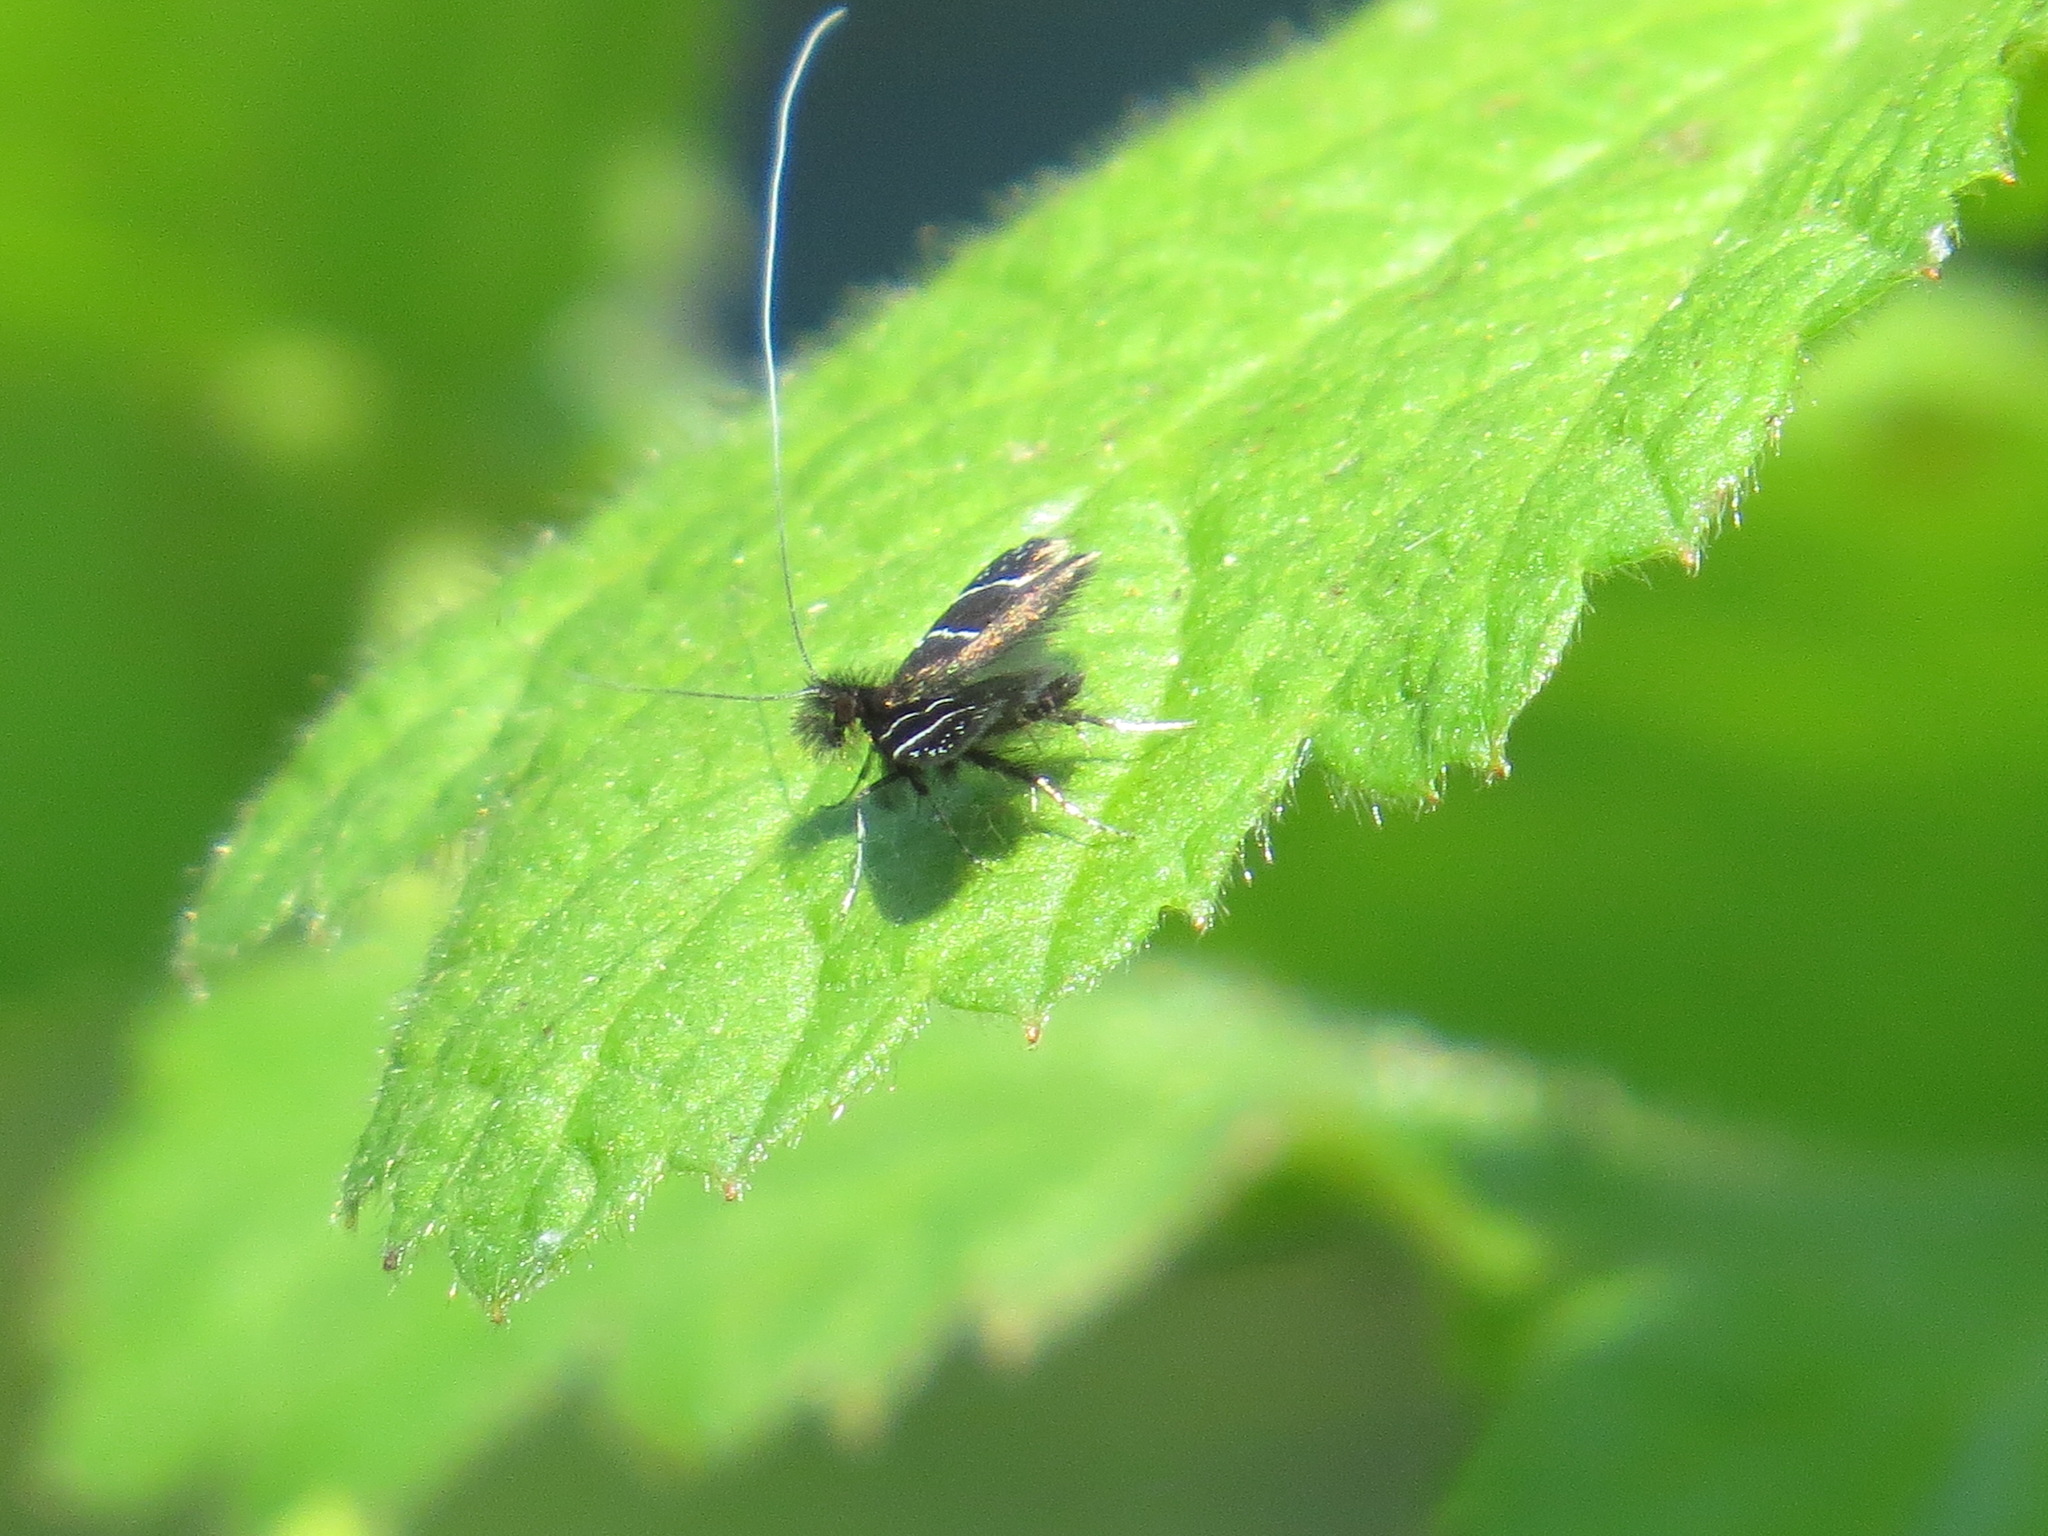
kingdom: Animalia
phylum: Arthropoda
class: Insecta
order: Lepidoptera
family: Adelidae
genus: Adela
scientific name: Adela septentrionella
